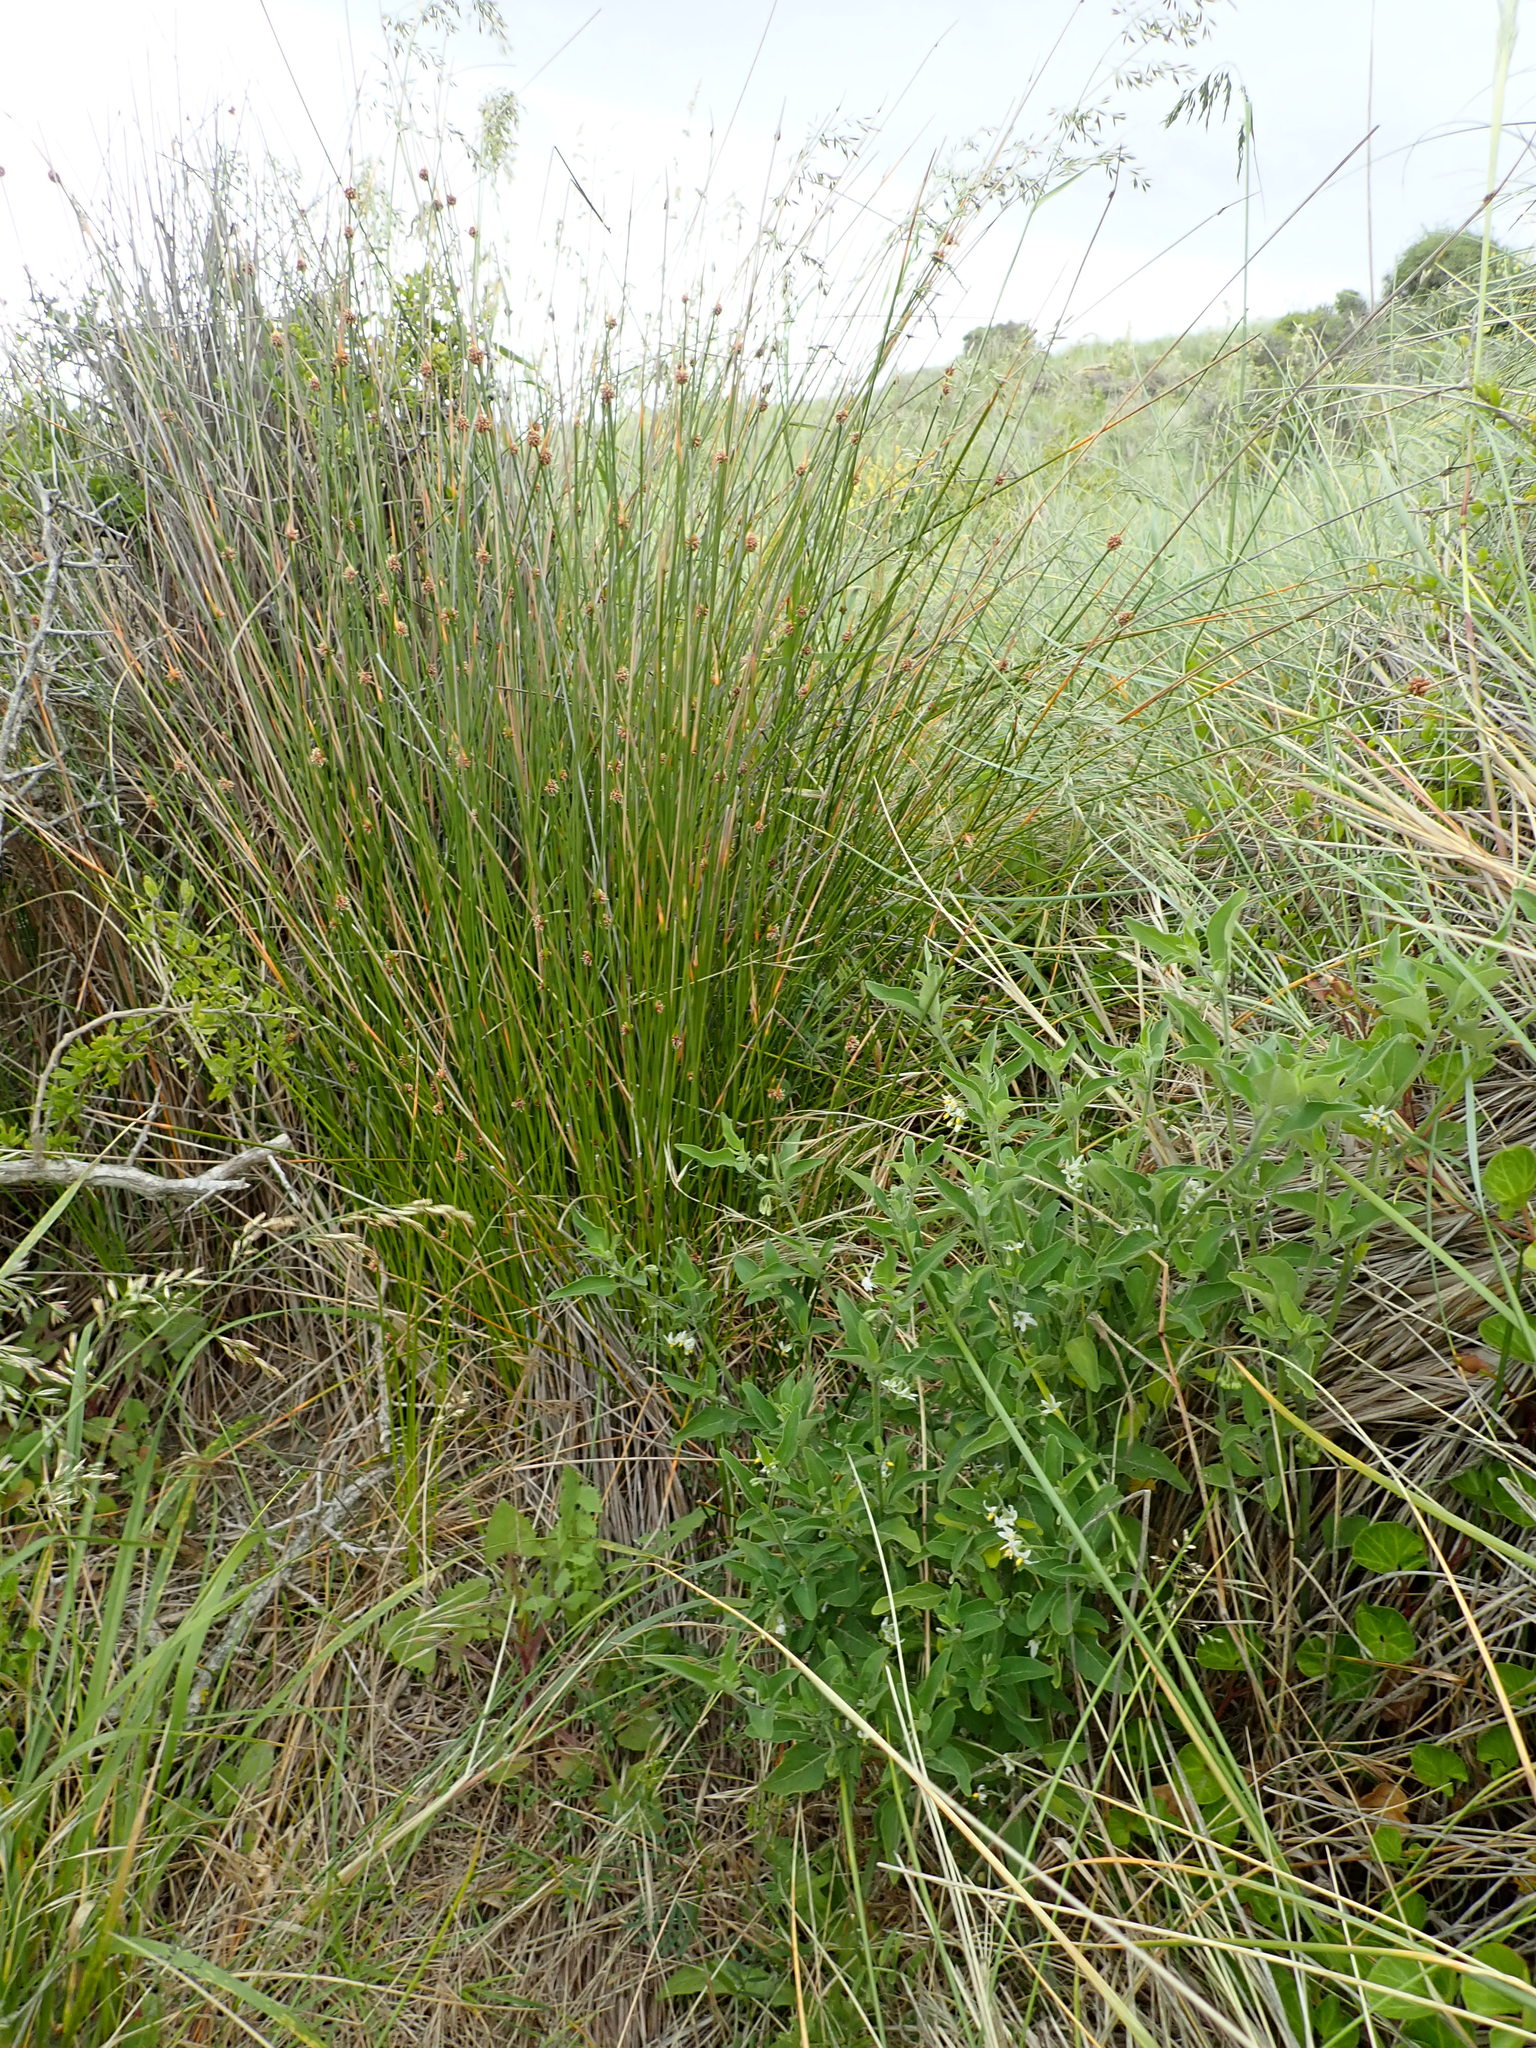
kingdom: Plantae
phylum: Tracheophyta
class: Magnoliopsida
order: Solanales
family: Solanaceae
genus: Solanum
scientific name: Solanum chenopodioides
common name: Tall nightshade
